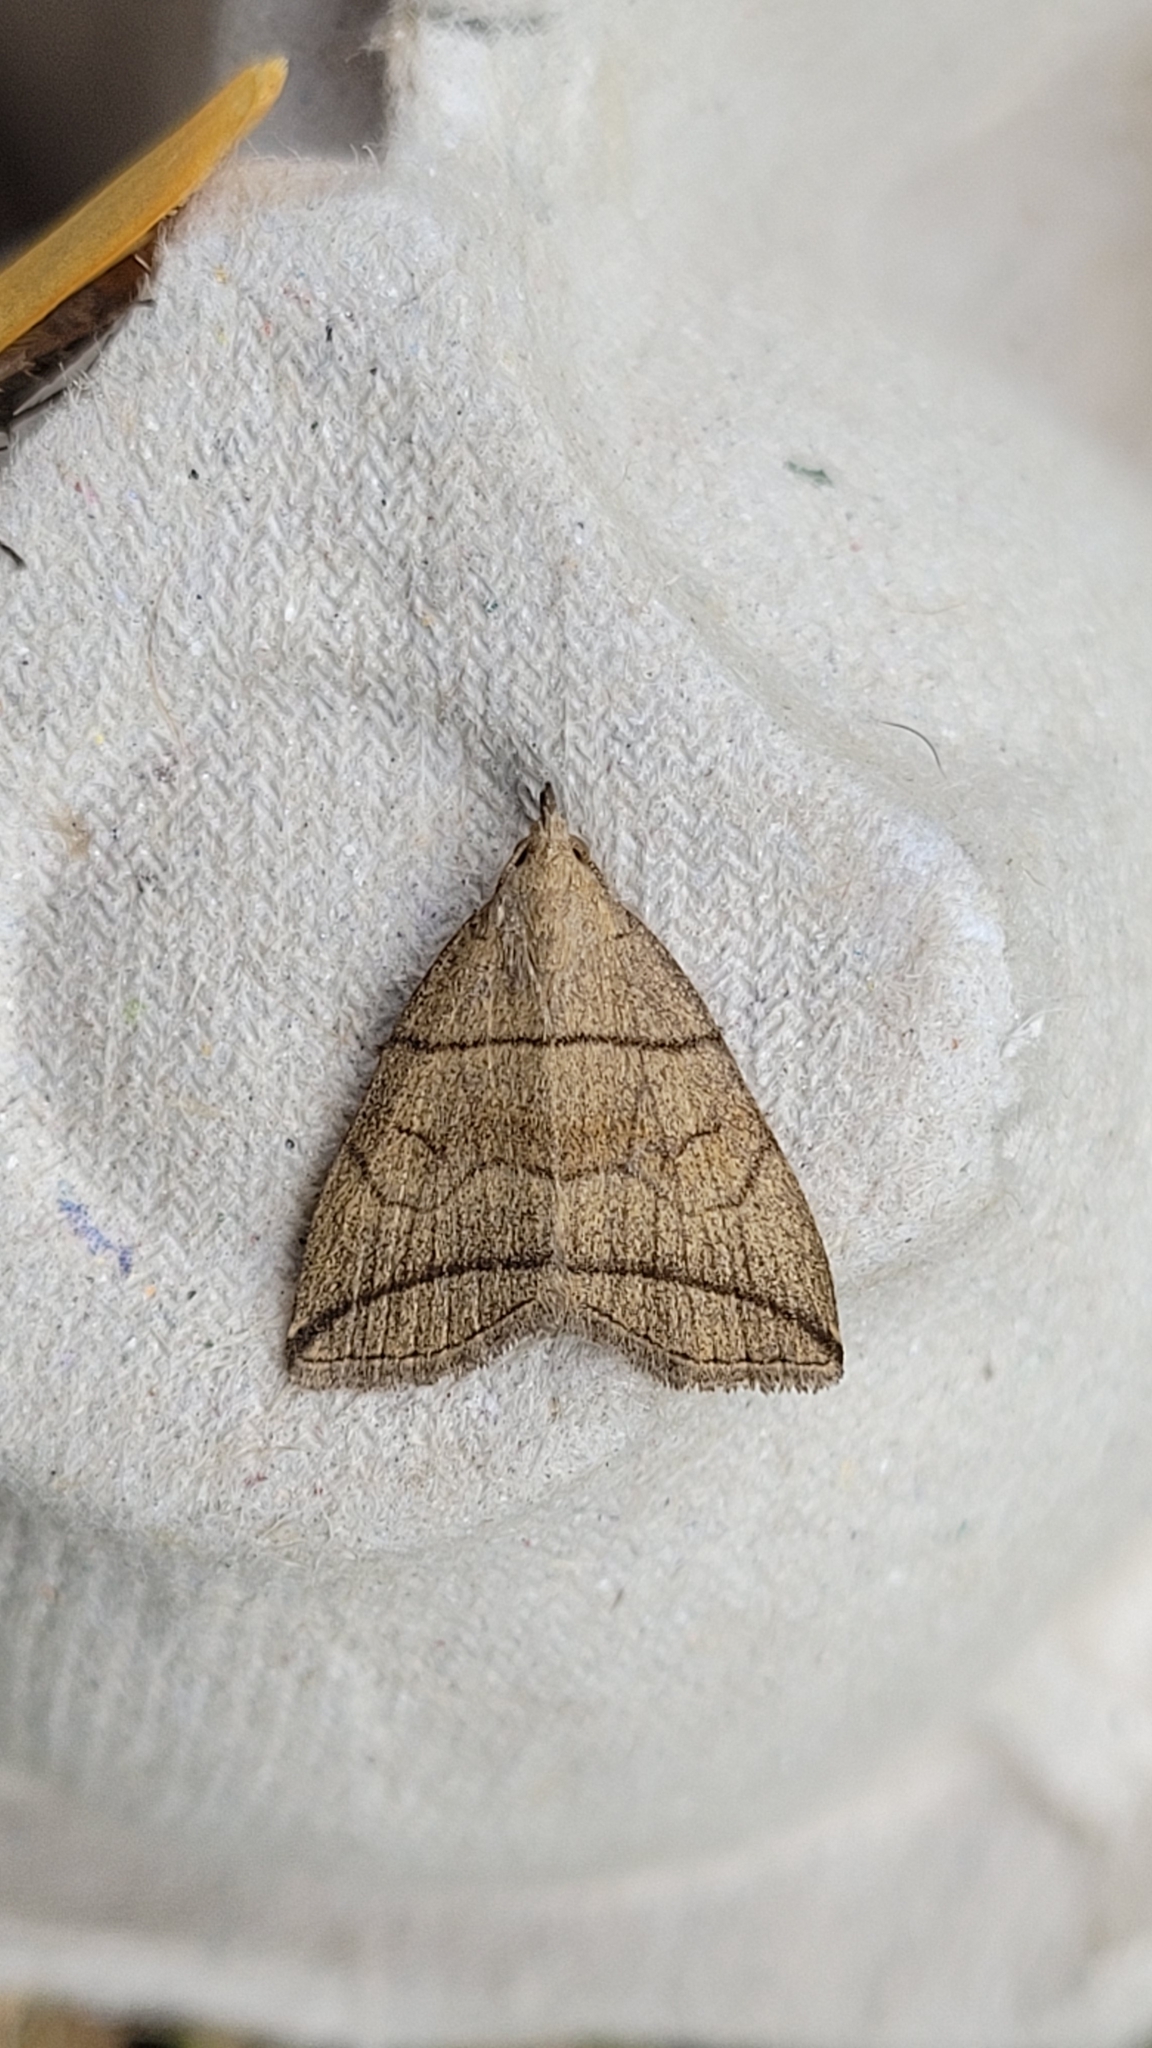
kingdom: Animalia
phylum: Arthropoda
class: Insecta
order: Lepidoptera
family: Erebidae
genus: Herminia
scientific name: Herminia grisealis
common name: Small fan-foot
